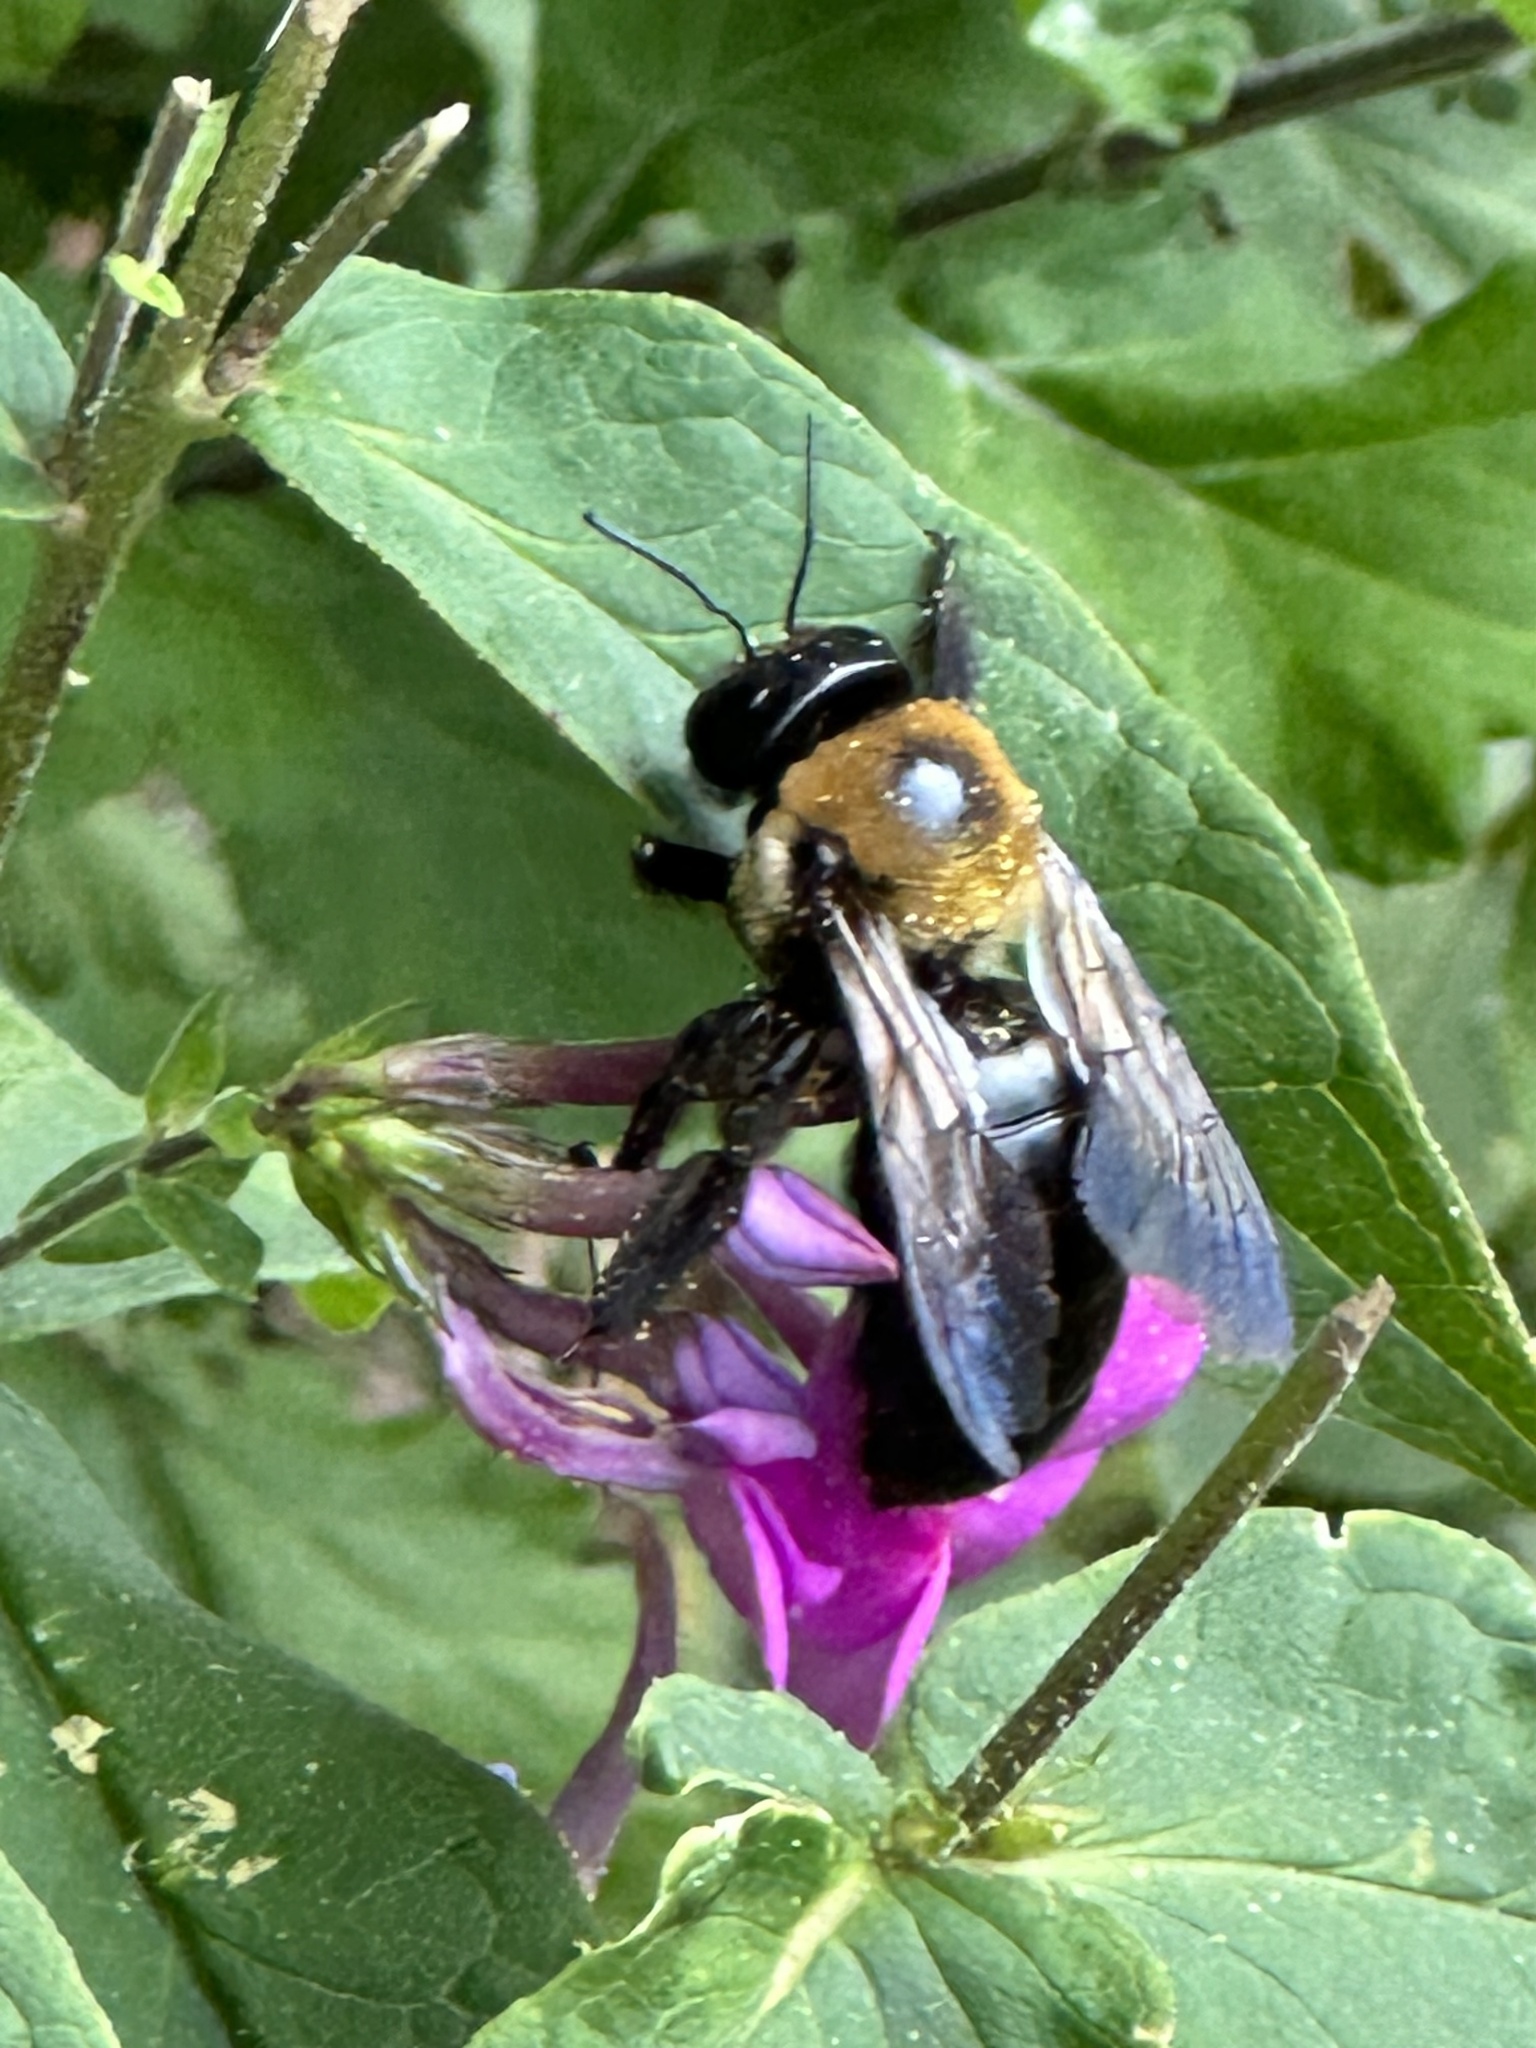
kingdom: Animalia
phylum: Arthropoda
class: Insecta
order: Hymenoptera
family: Apidae
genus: Xylocopa
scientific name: Xylocopa virginica
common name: Carpenter bee
